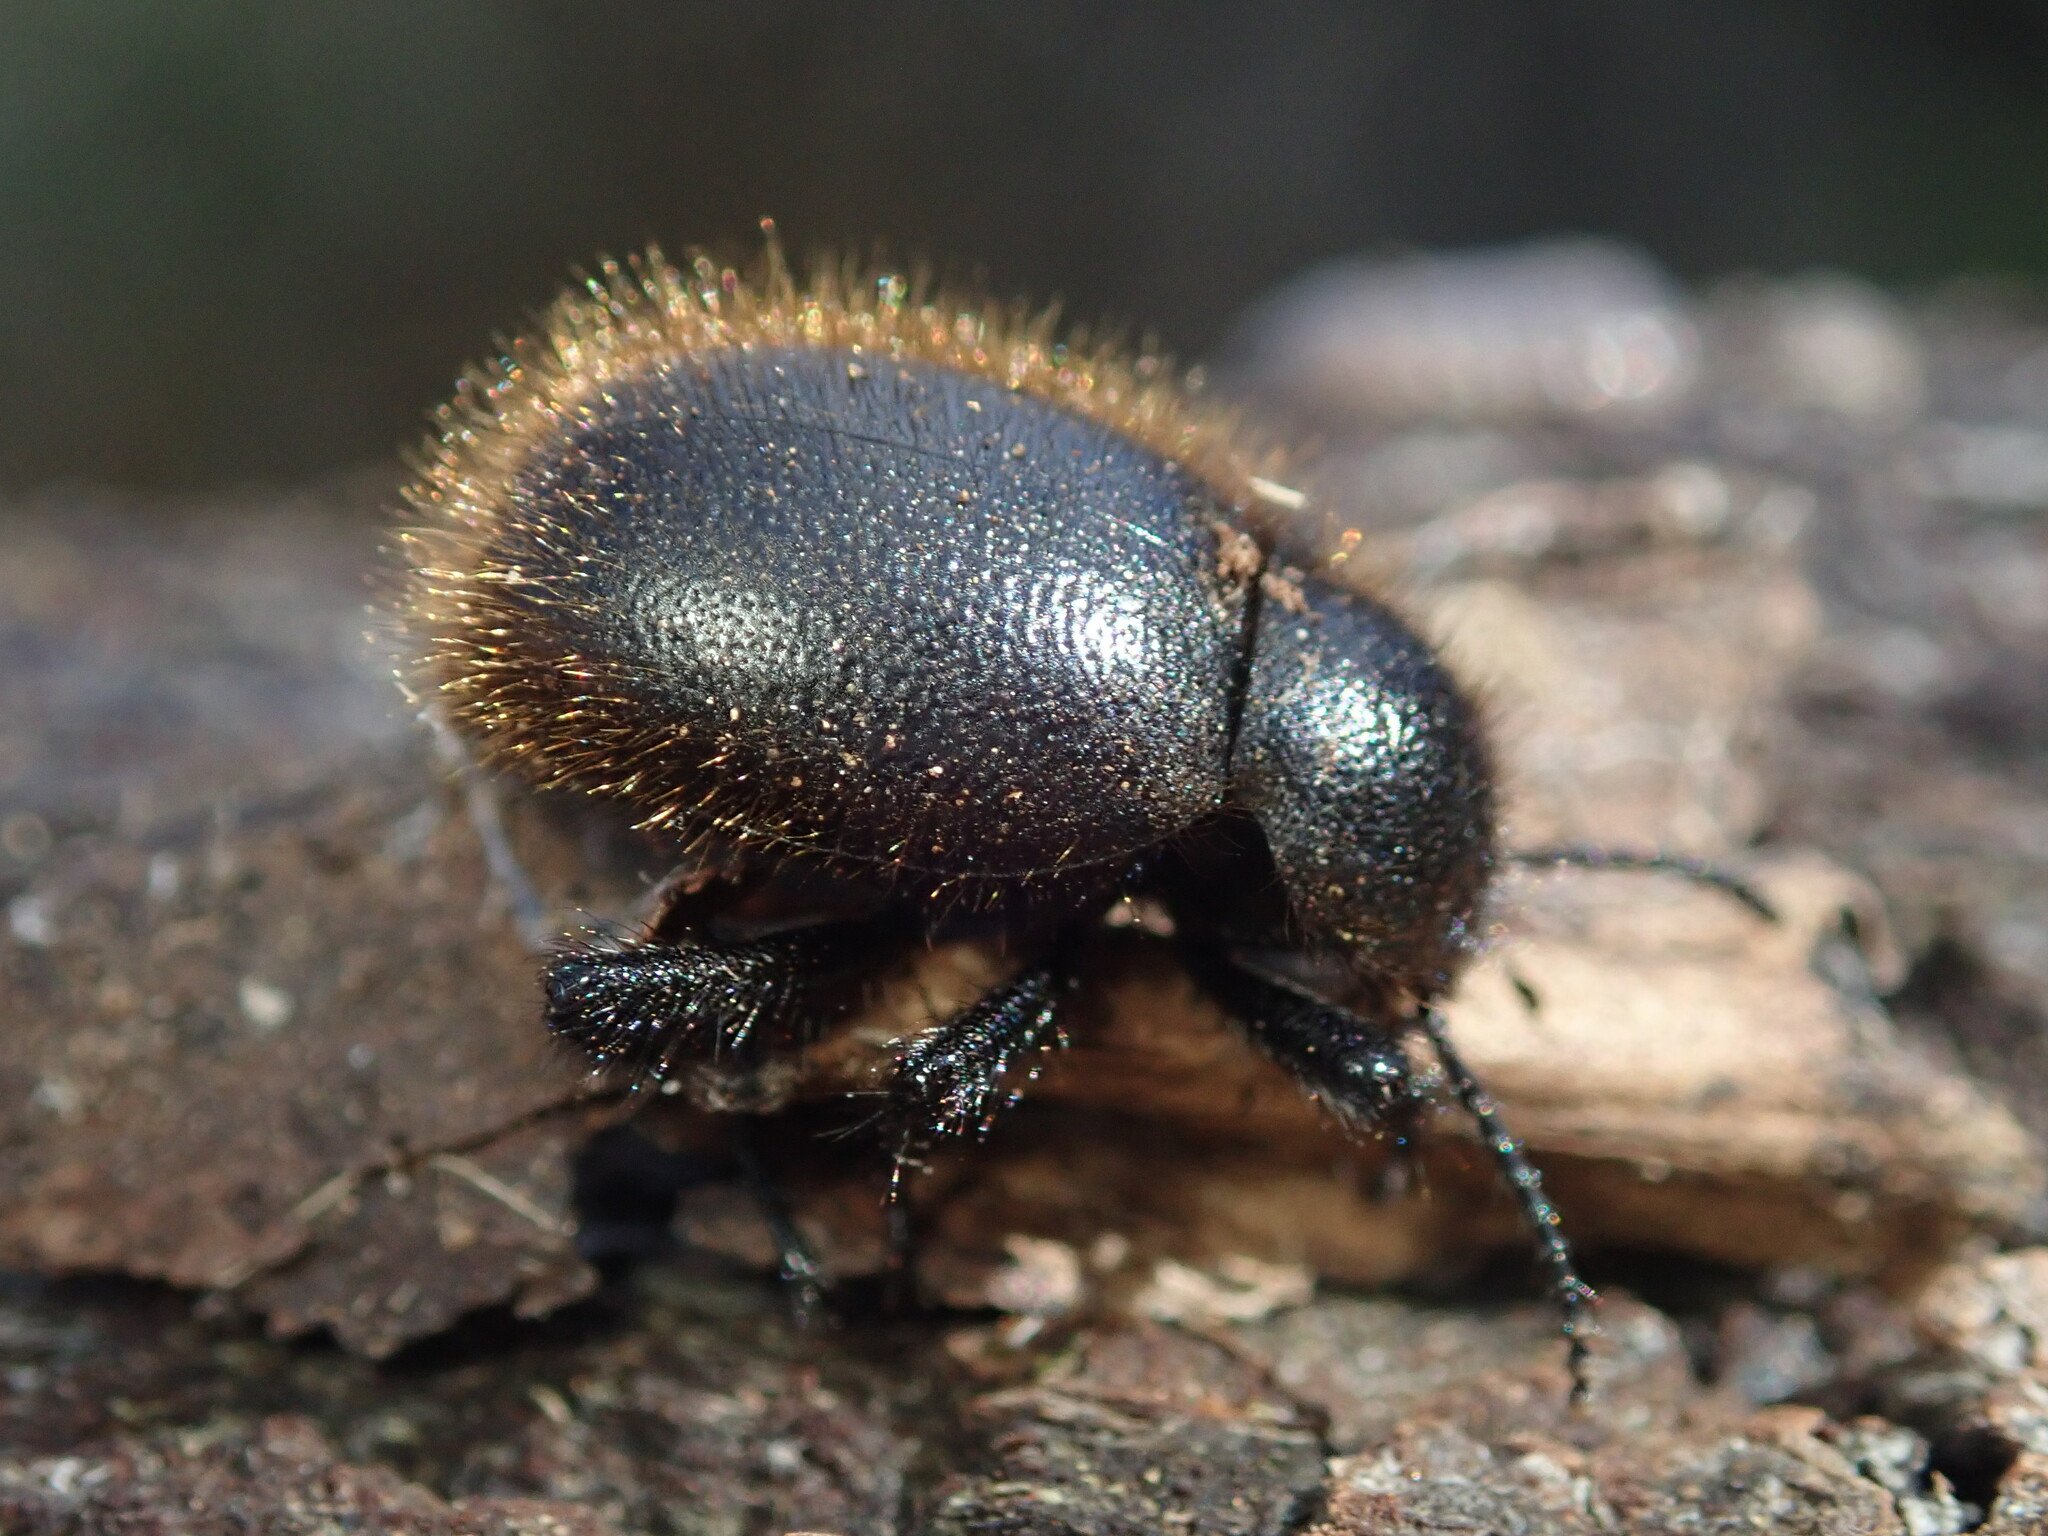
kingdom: Animalia
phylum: Arthropoda
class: Insecta
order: Coleoptera
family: Tenebrionidae
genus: Eleodes
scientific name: Eleodes osculans
